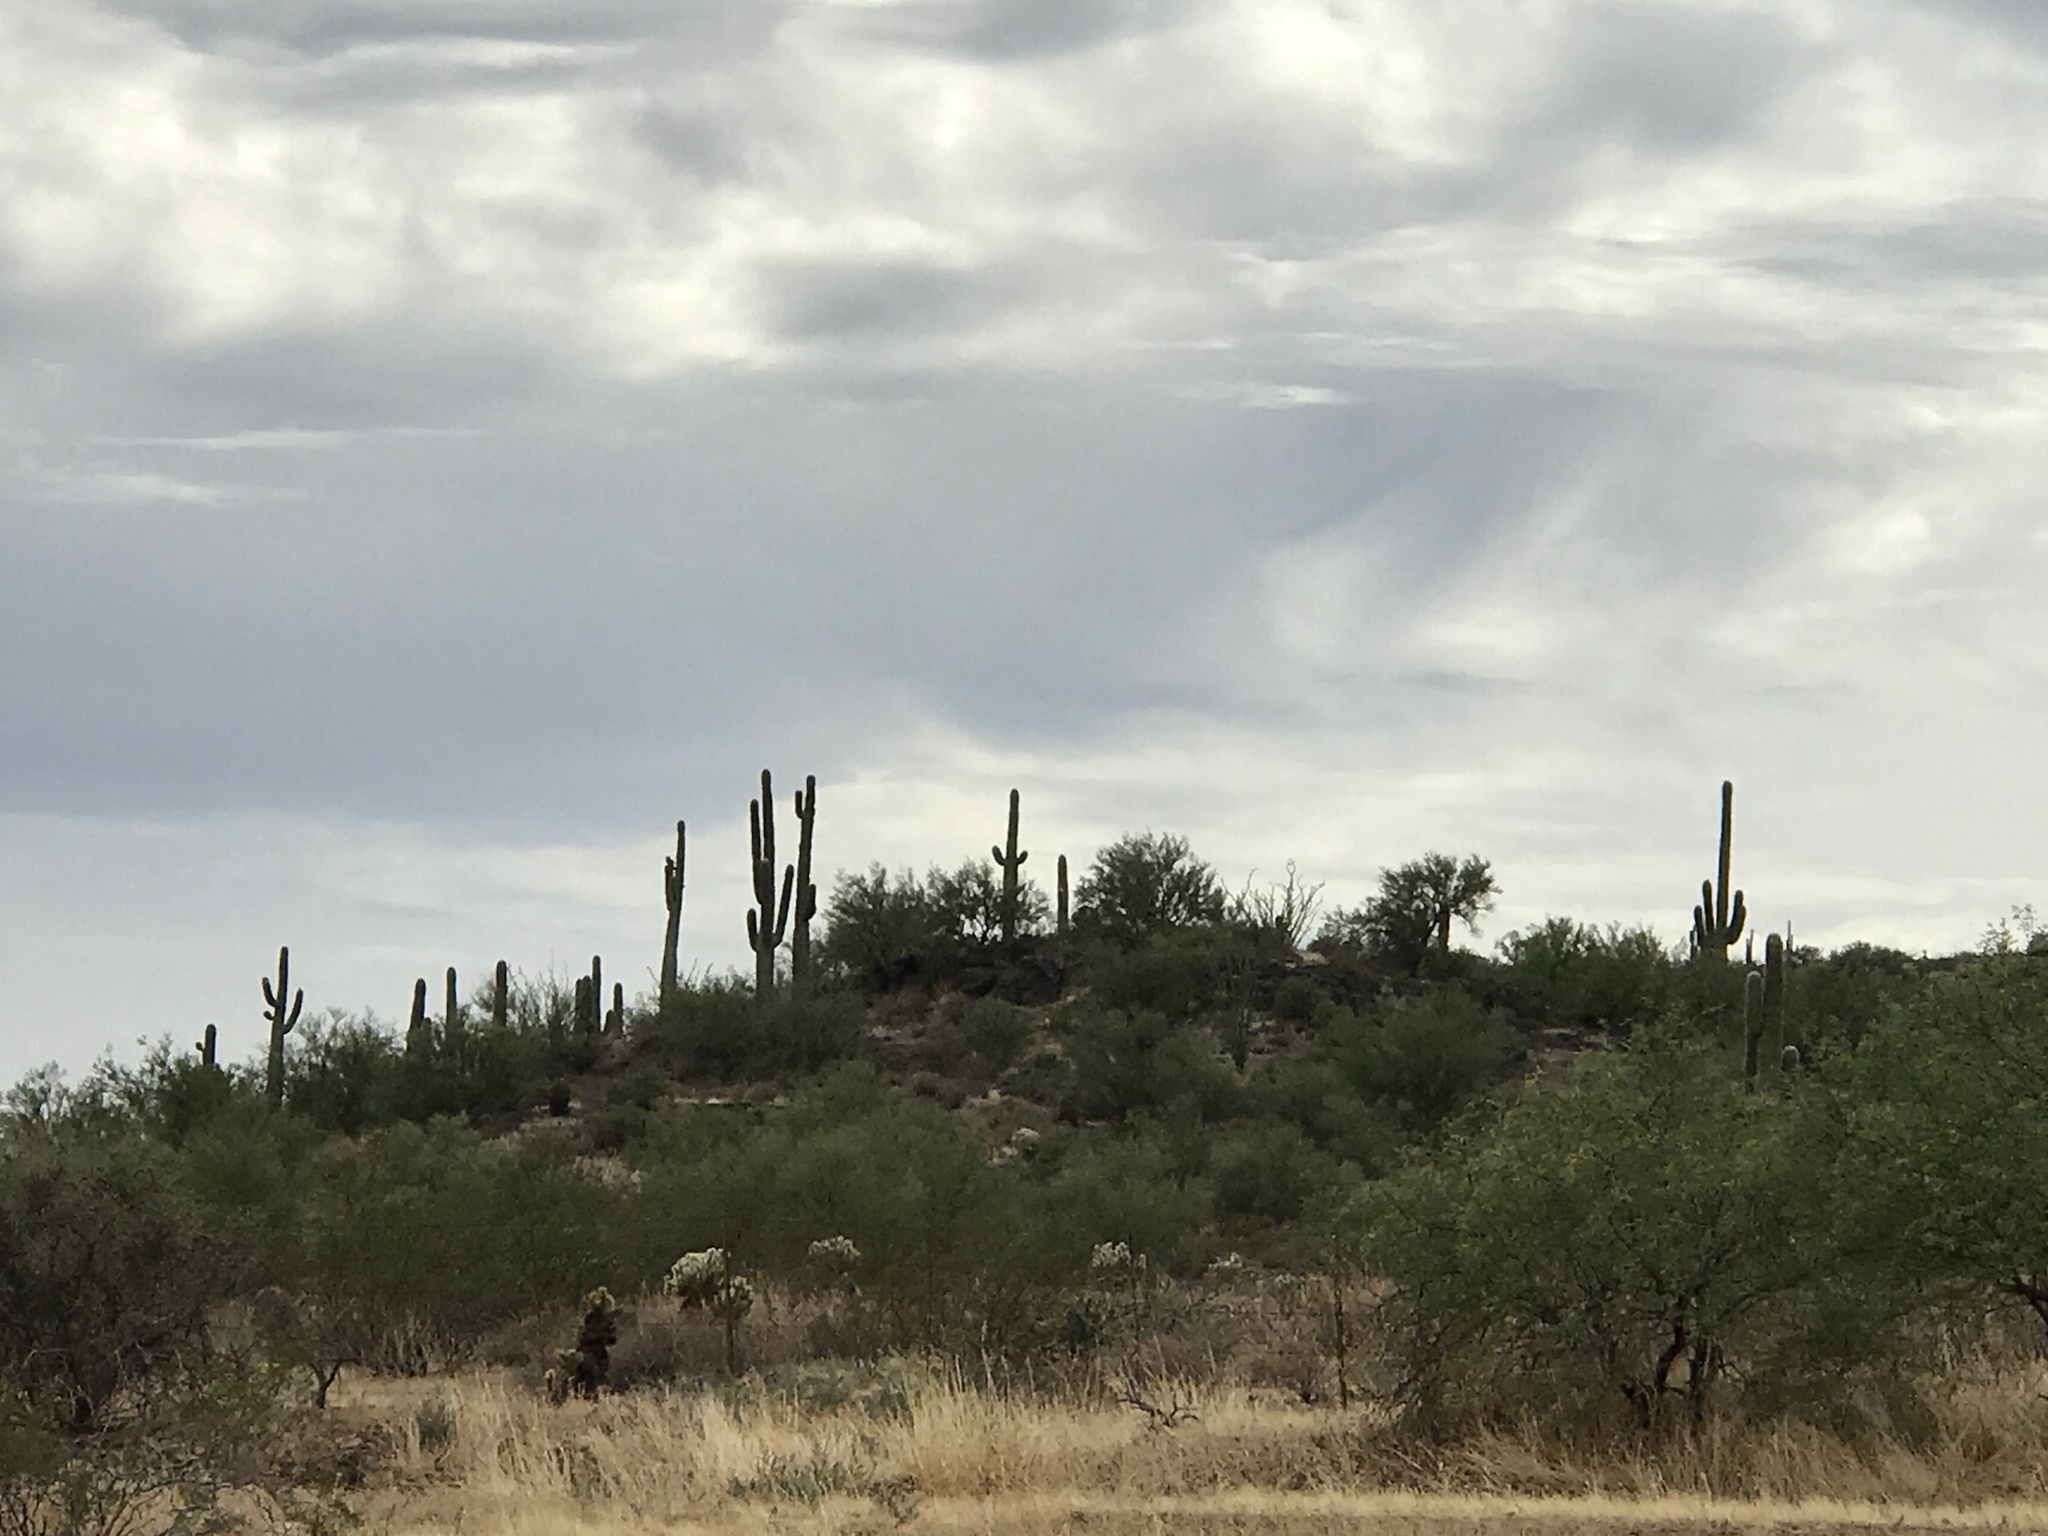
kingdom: Plantae
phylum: Tracheophyta
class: Magnoliopsida
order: Caryophyllales
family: Cactaceae
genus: Carnegiea
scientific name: Carnegiea gigantea
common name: Saguaro
